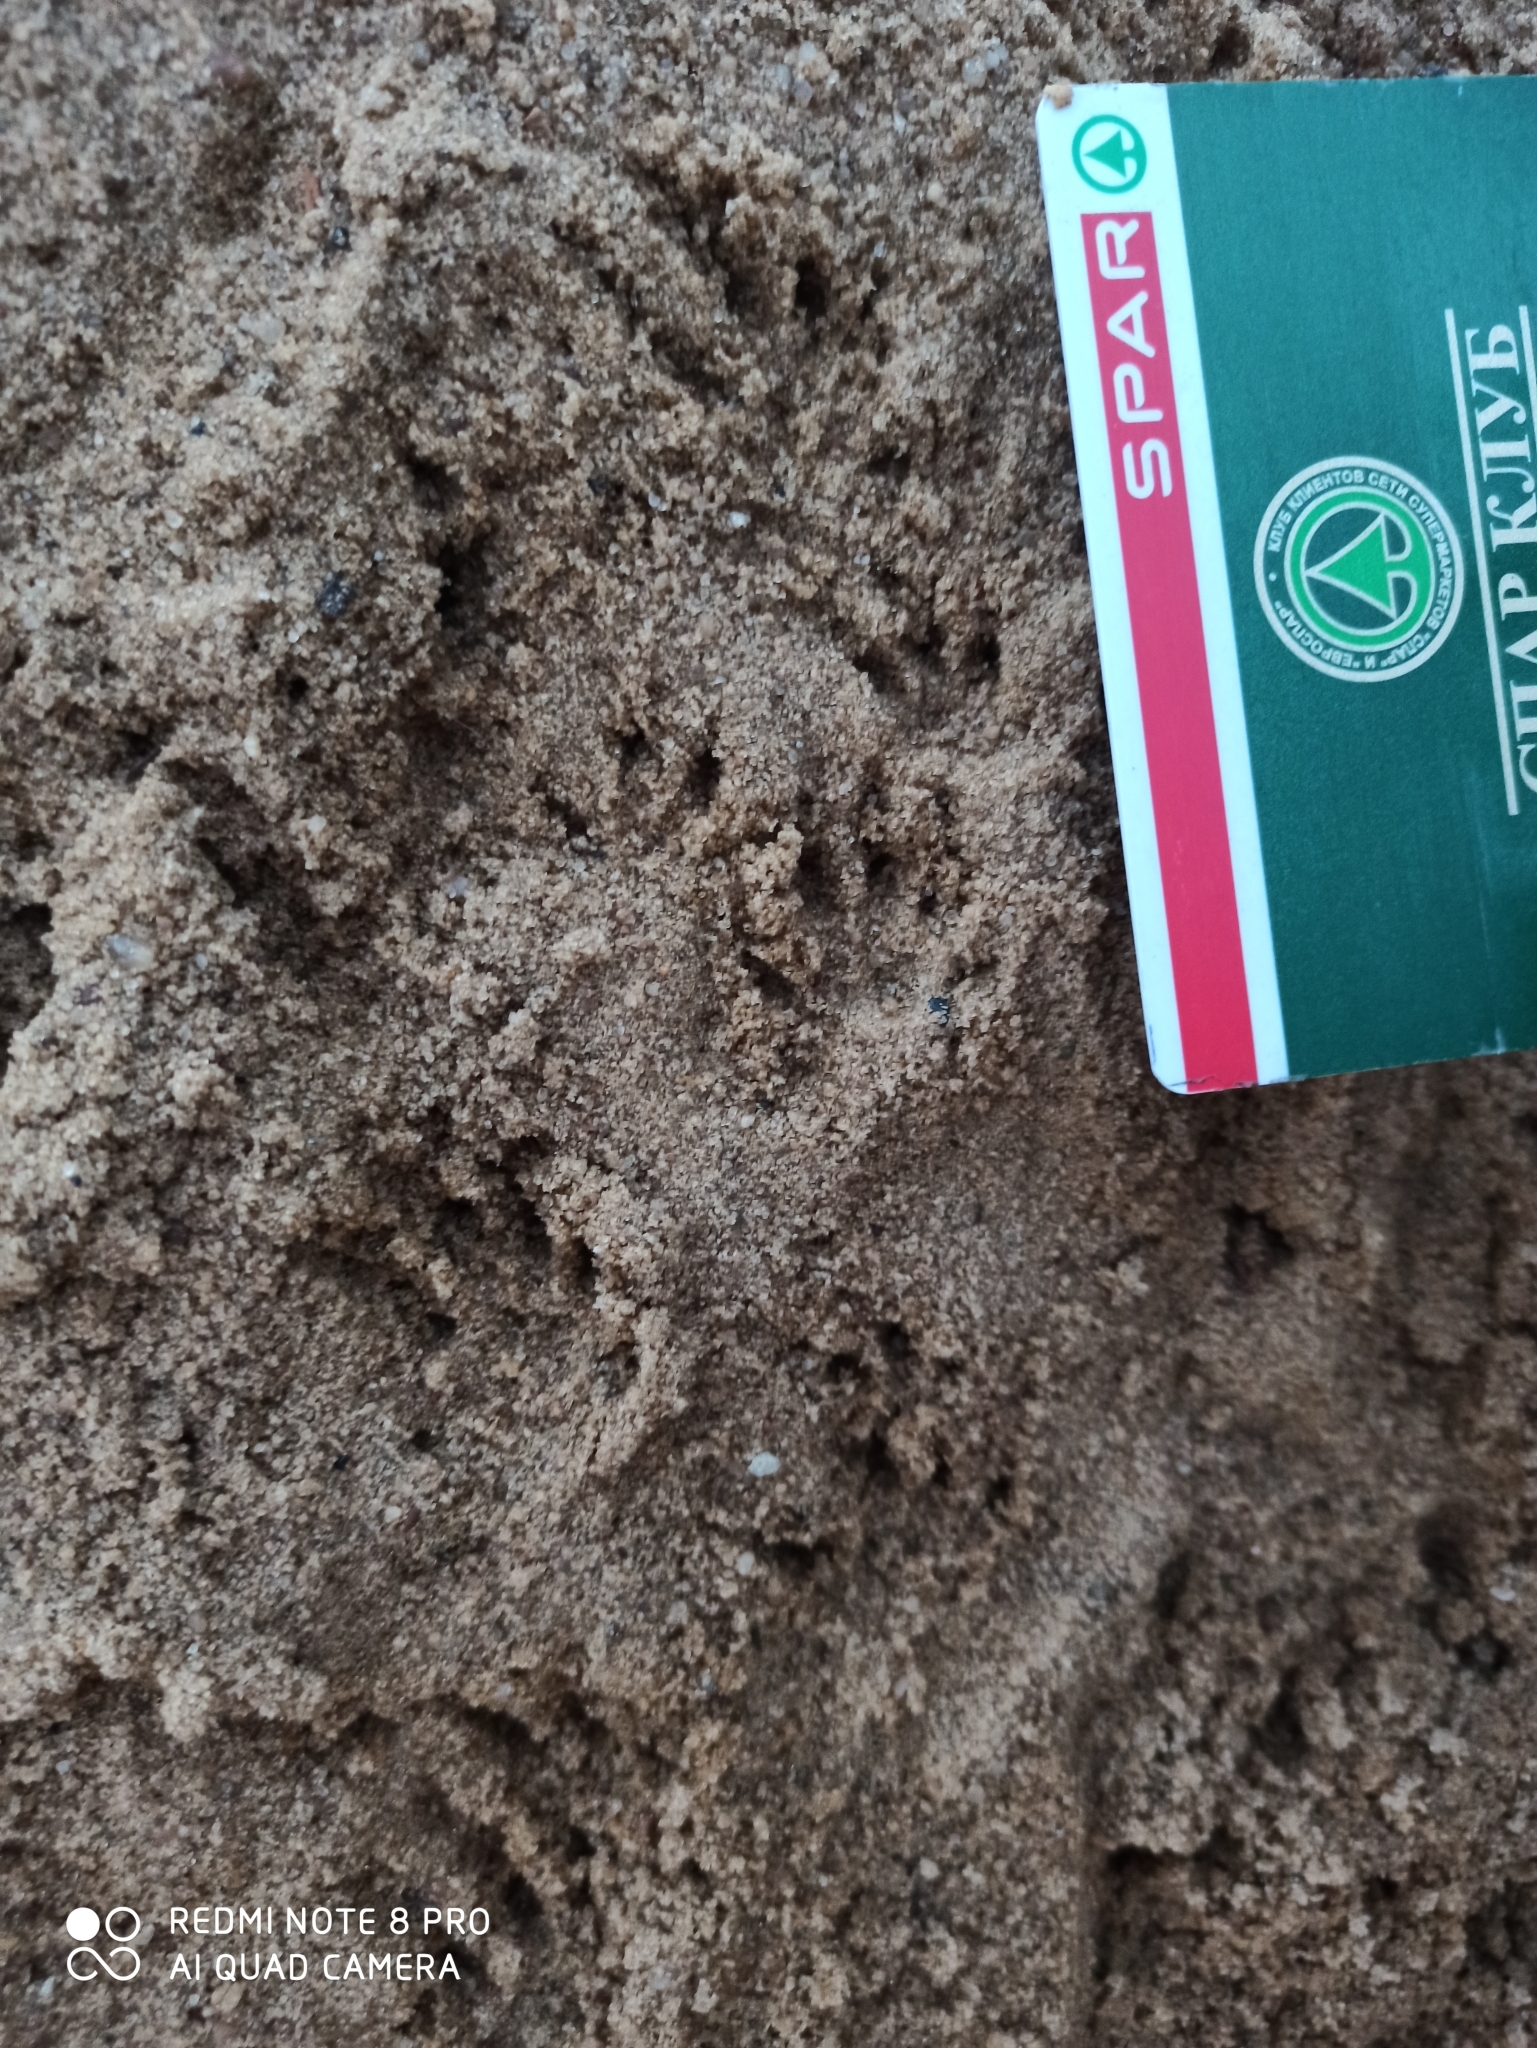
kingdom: Animalia
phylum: Chordata
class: Mammalia
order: Rodentia
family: Muridae
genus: Rattus
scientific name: Rattus norvegicus
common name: Brown rat
